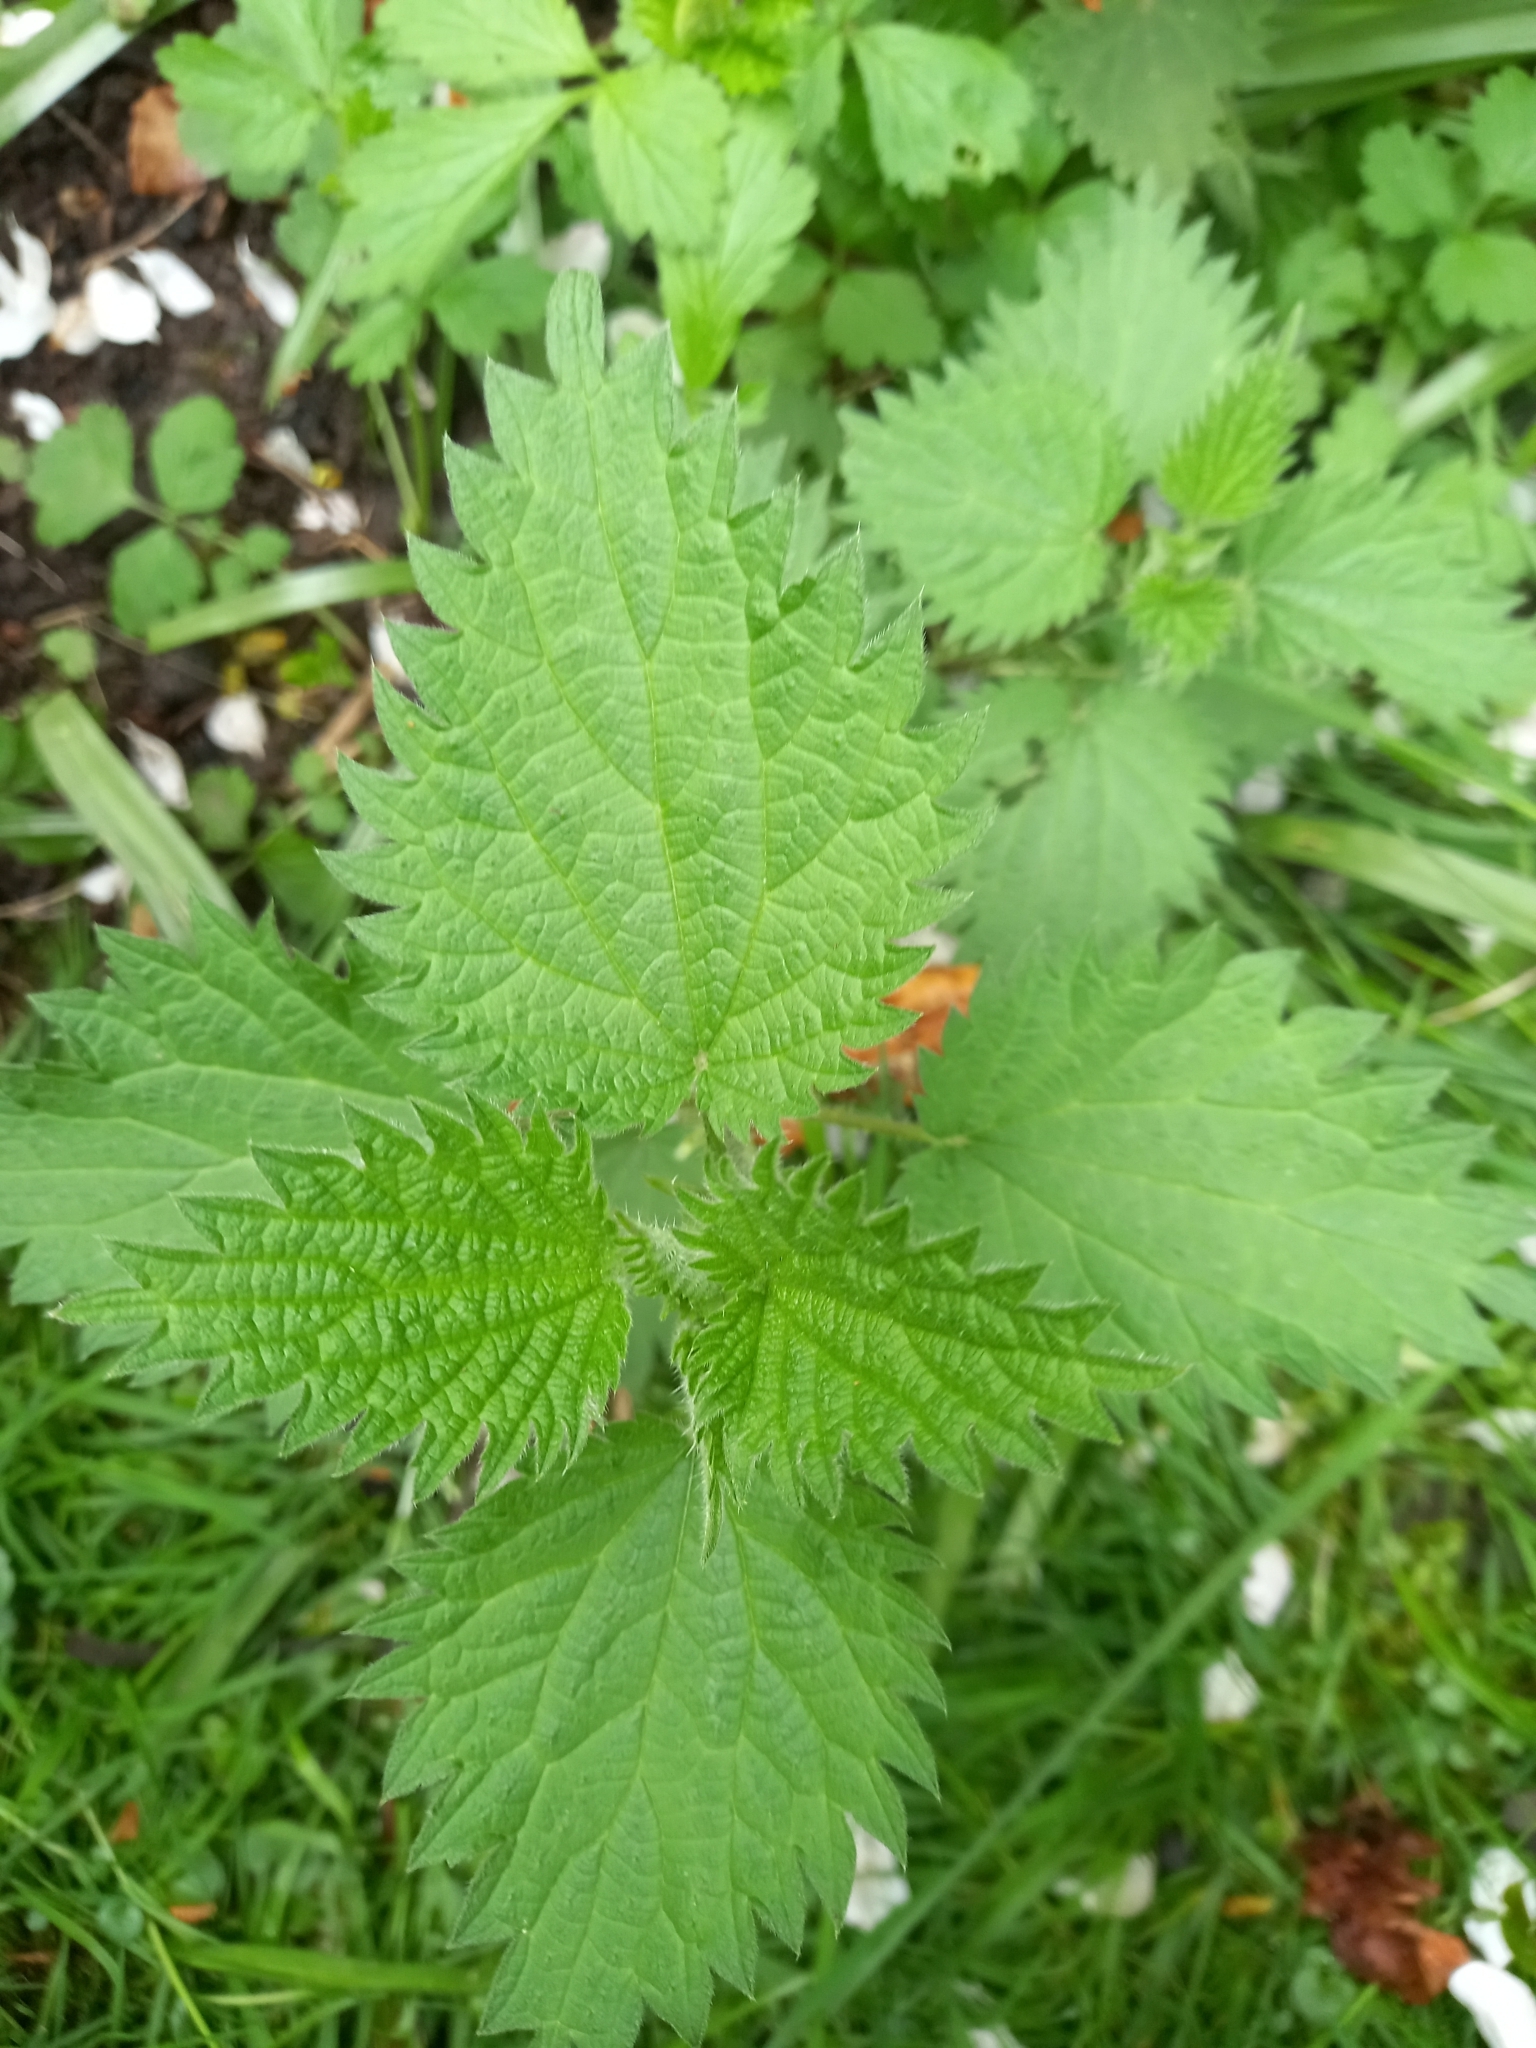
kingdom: Plantae
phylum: Tracheophyta
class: Magnoliopsida
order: Rosales
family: Urticaceae
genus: Urtica
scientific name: Urtica dioica
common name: Common nettle
